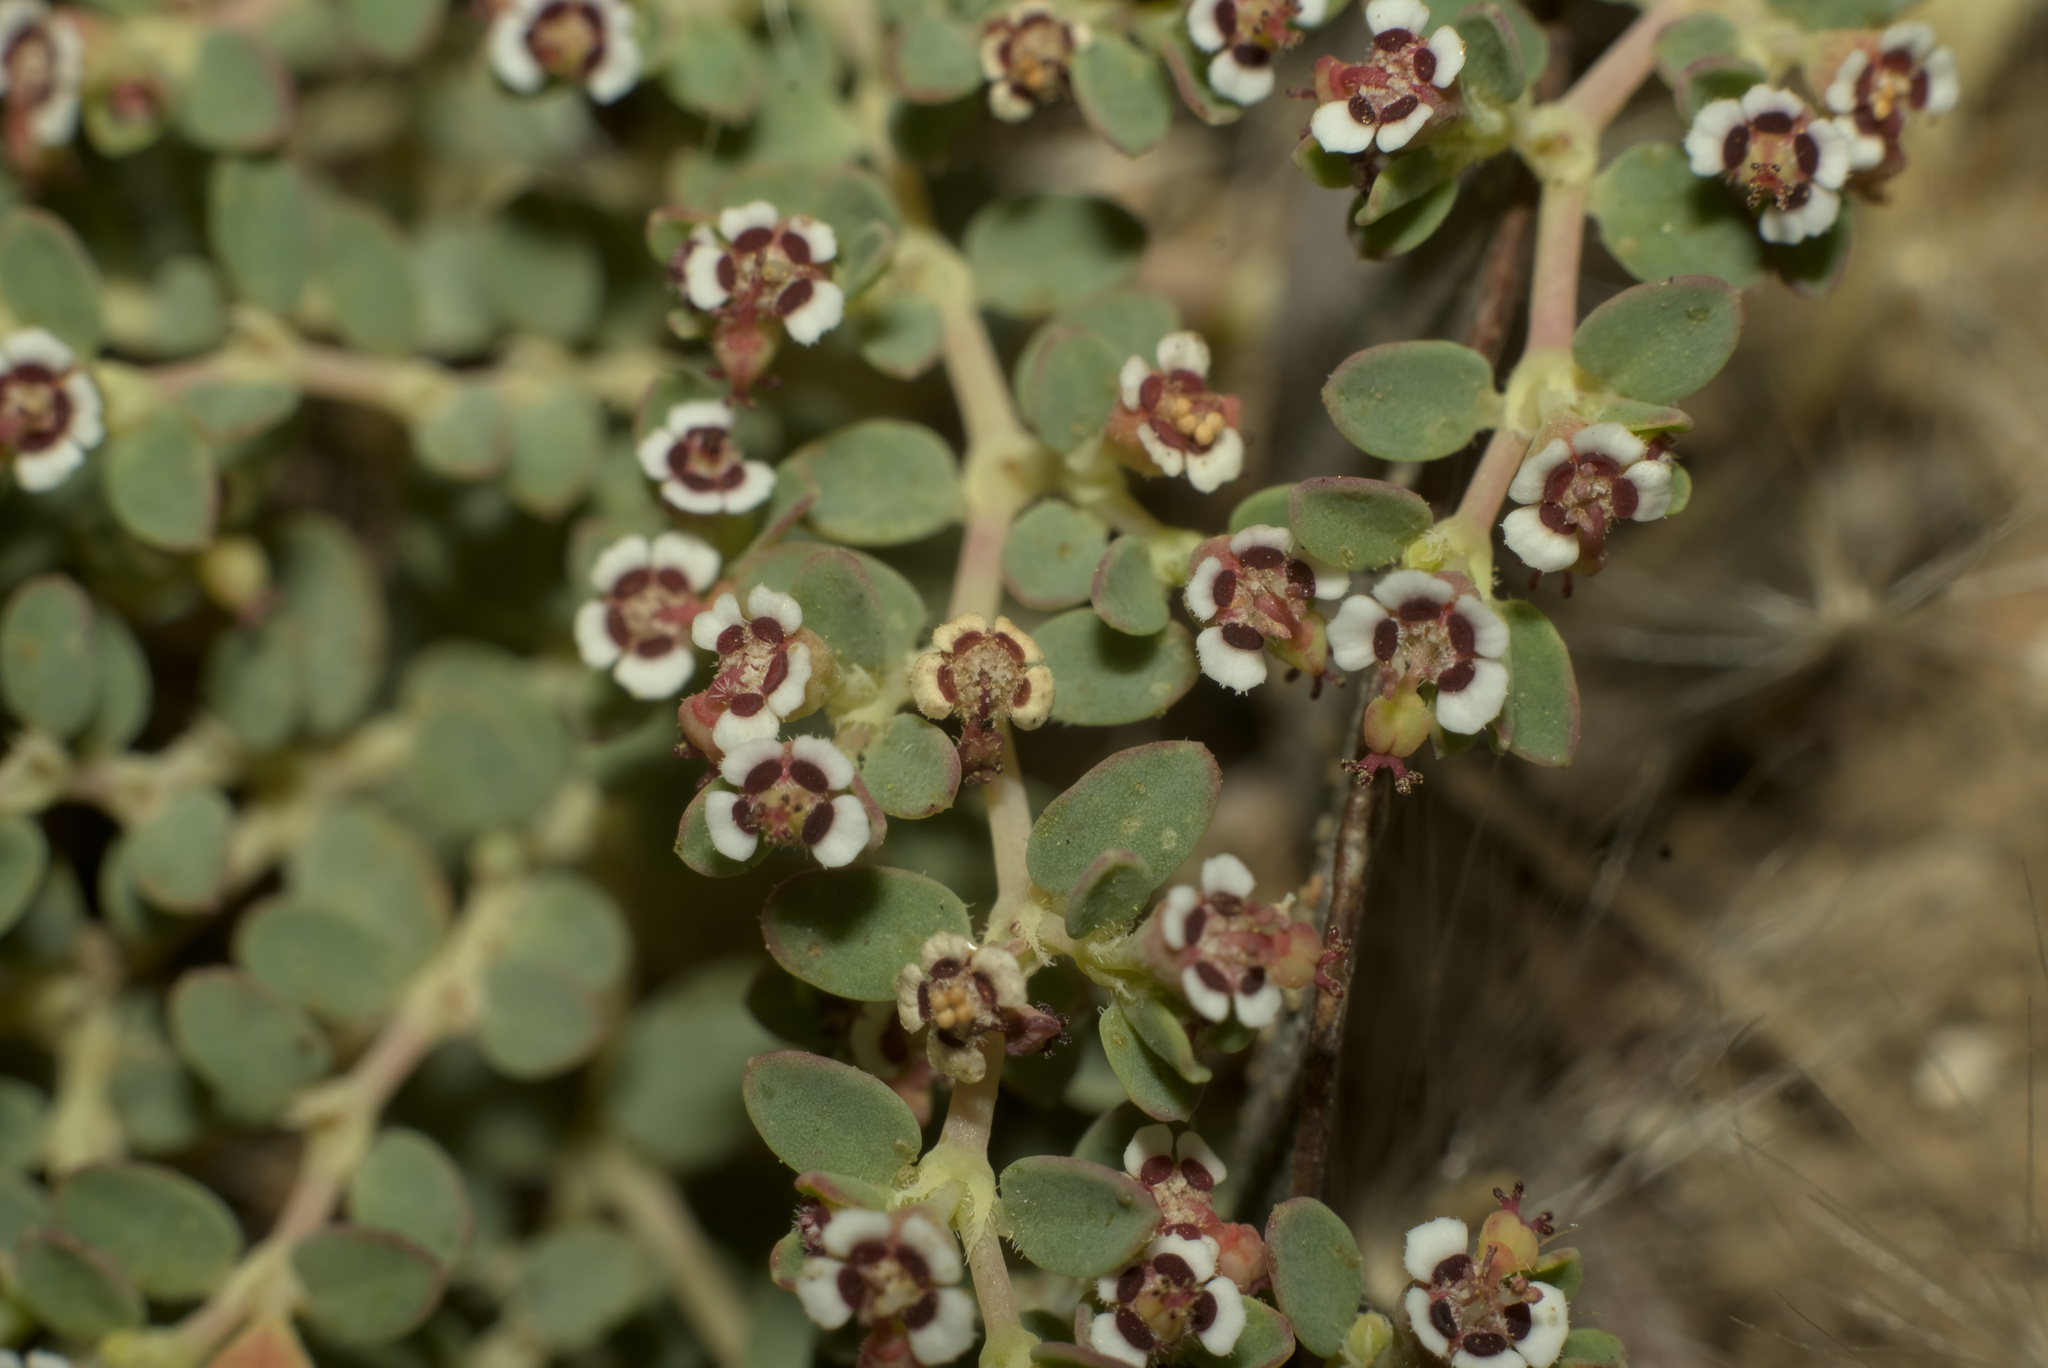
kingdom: Plantae
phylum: Tracheophyta
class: Magnoliopsida
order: Malpighiales
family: Euphorbiaceae
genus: Euphorbia
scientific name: Euphorbia polycarpa
